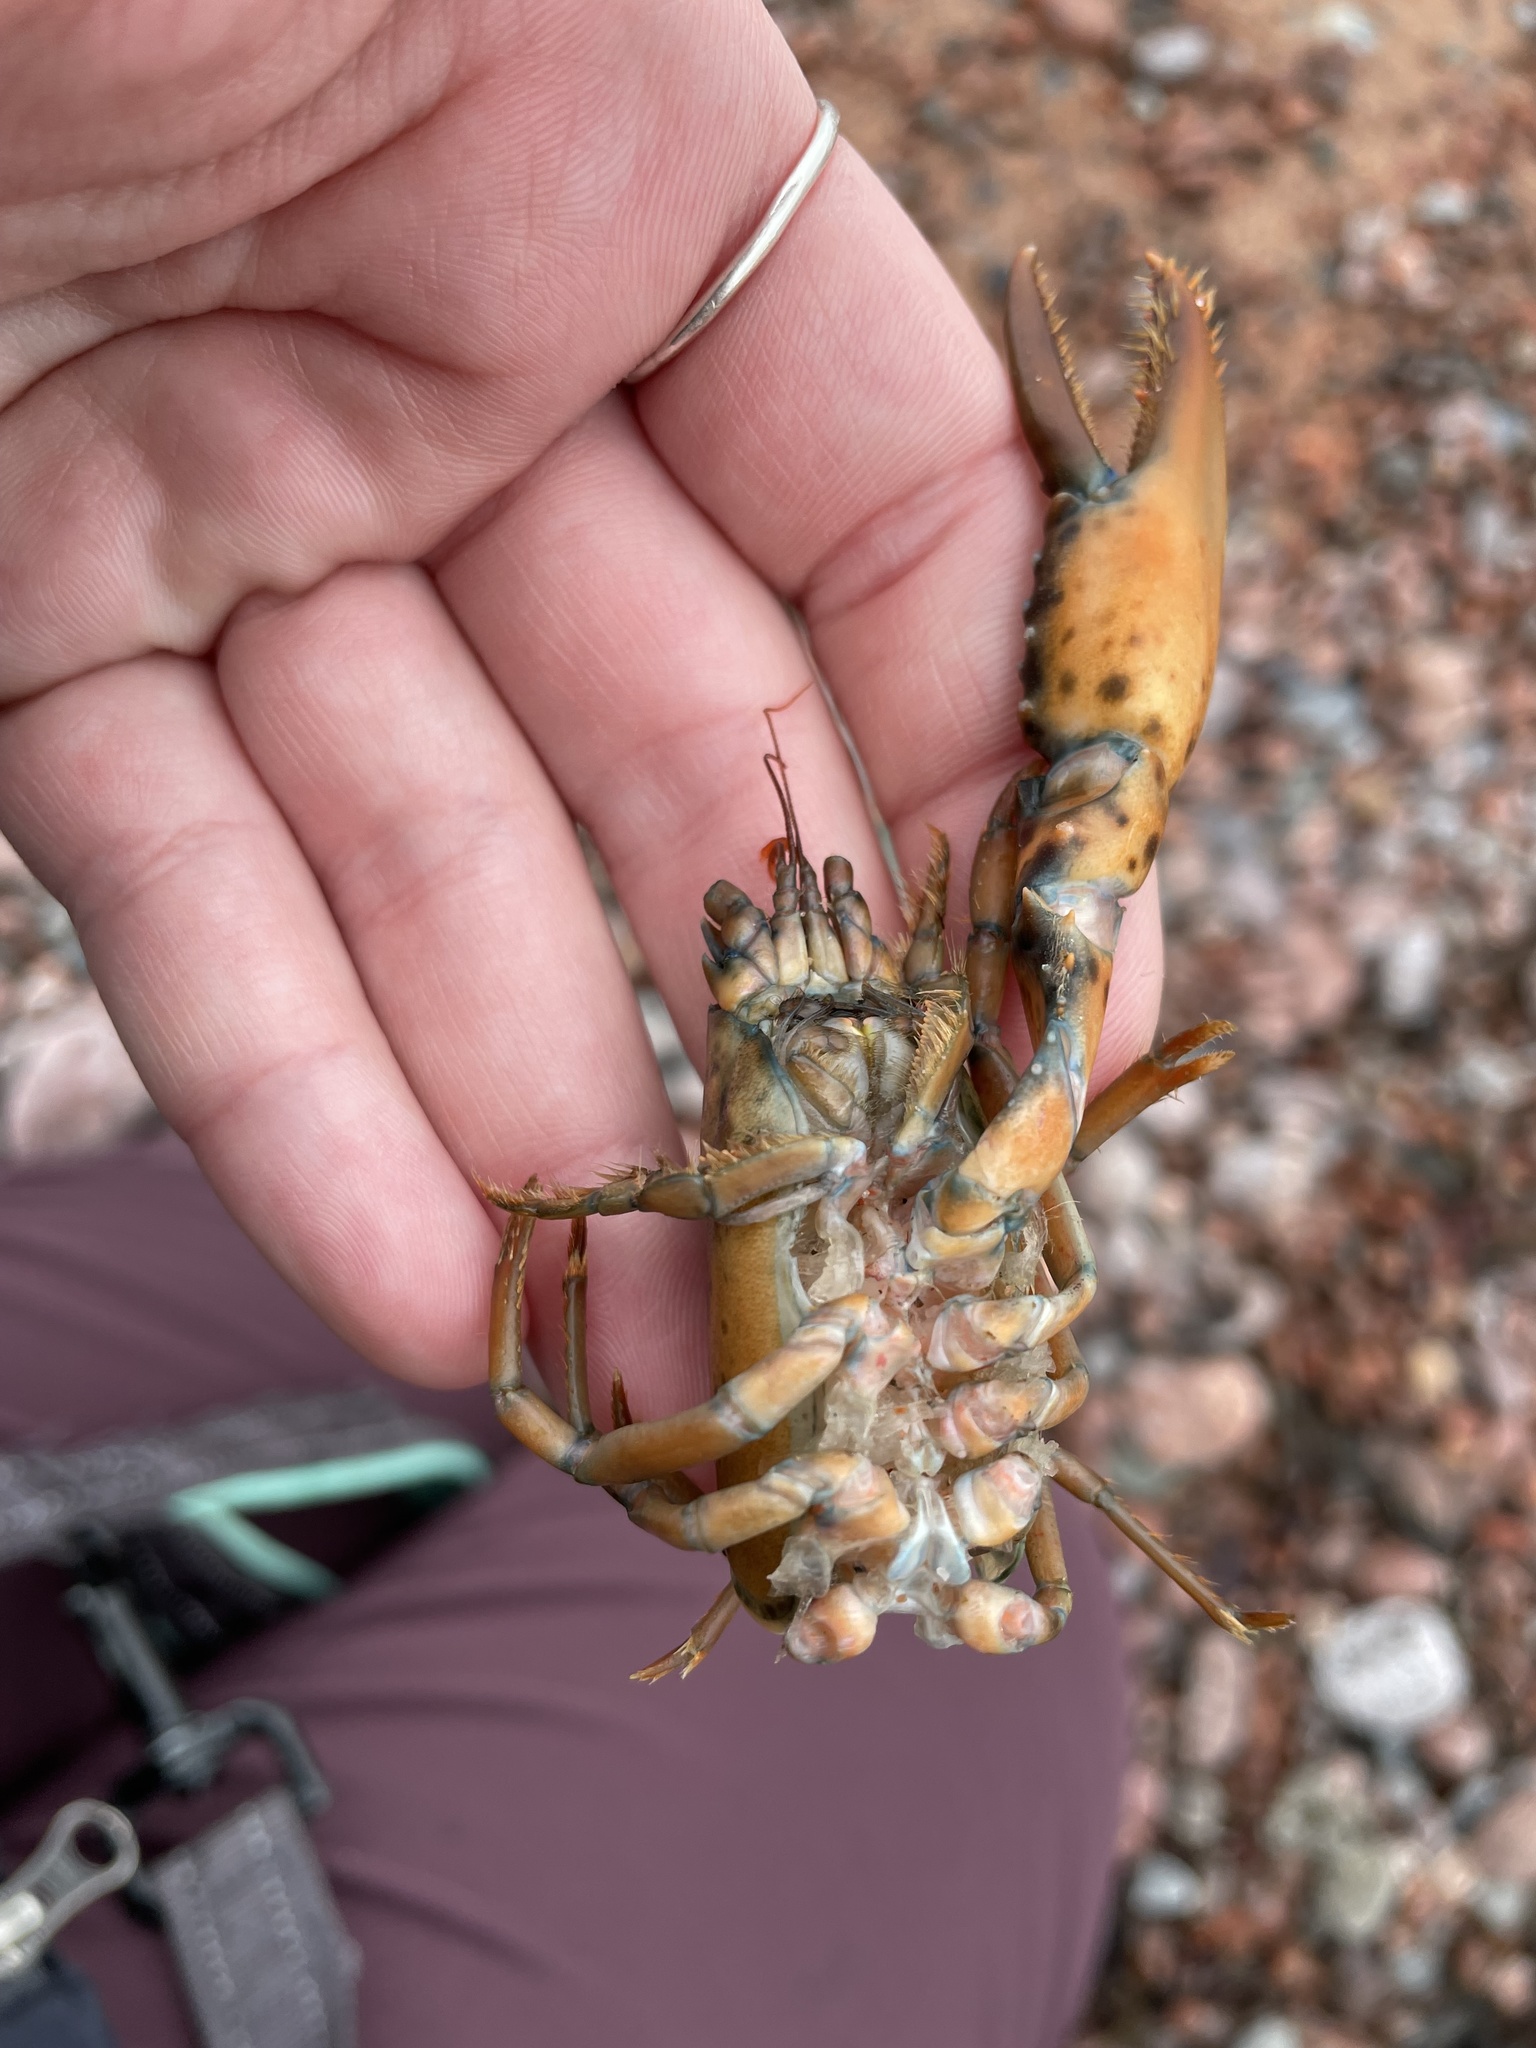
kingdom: Animalia
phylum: Arthropoda
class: Malacostraca
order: Decapoda
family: Nephropidae
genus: Homarus
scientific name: Homarus americanus
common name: American lobster
